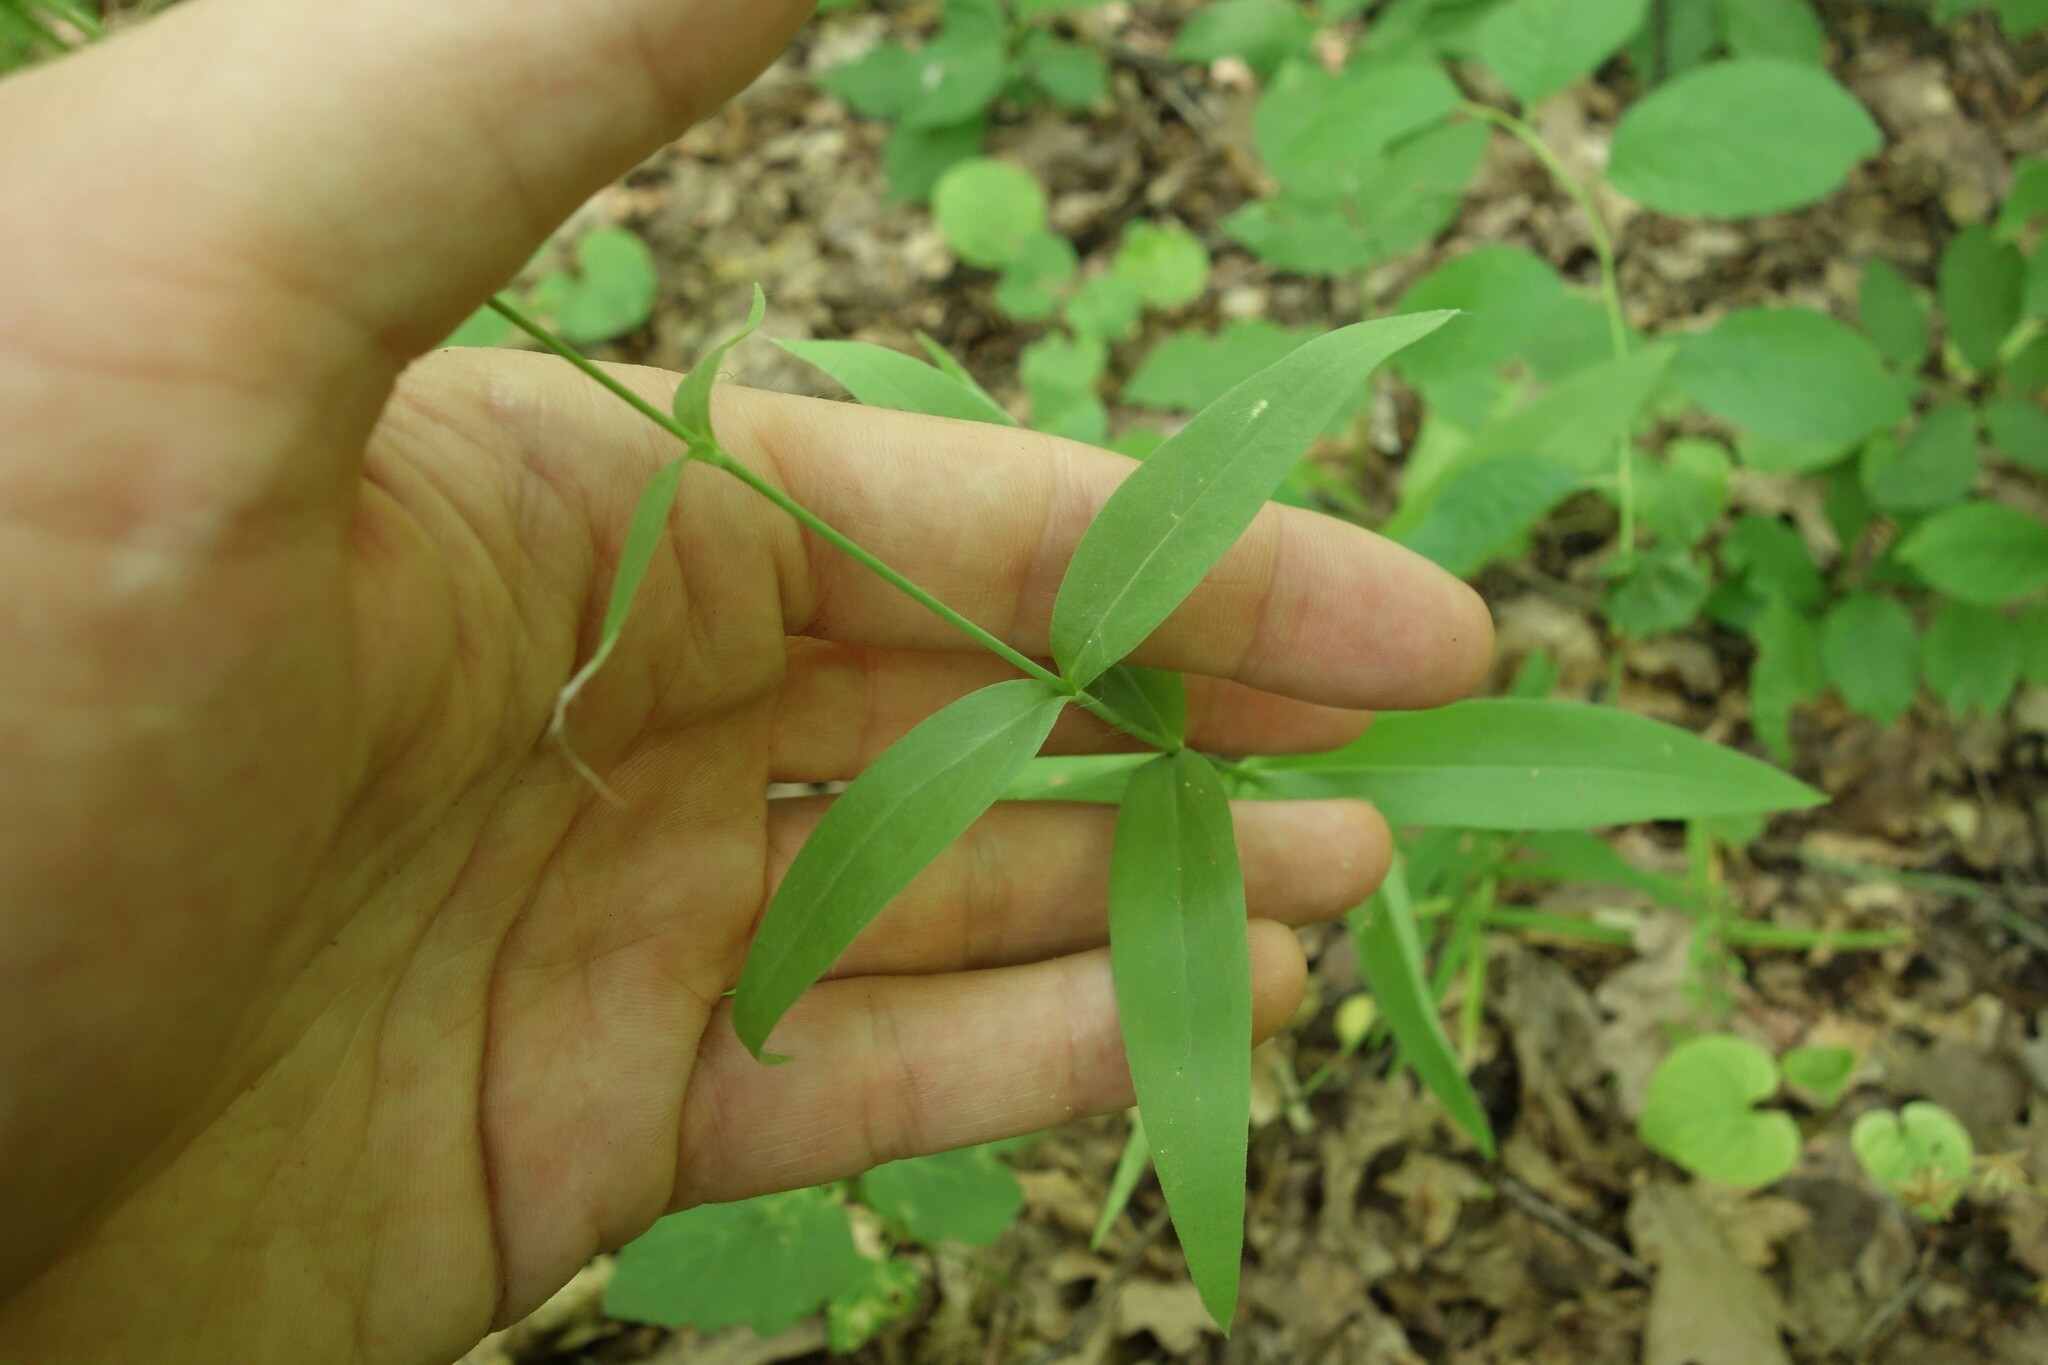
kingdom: Plantae
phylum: Tracheophyta
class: Magnoliopsida
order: Caryophyllales
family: Caryophyllaceae
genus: Silene
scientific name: Silene vulgaris
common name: Bladder campion
